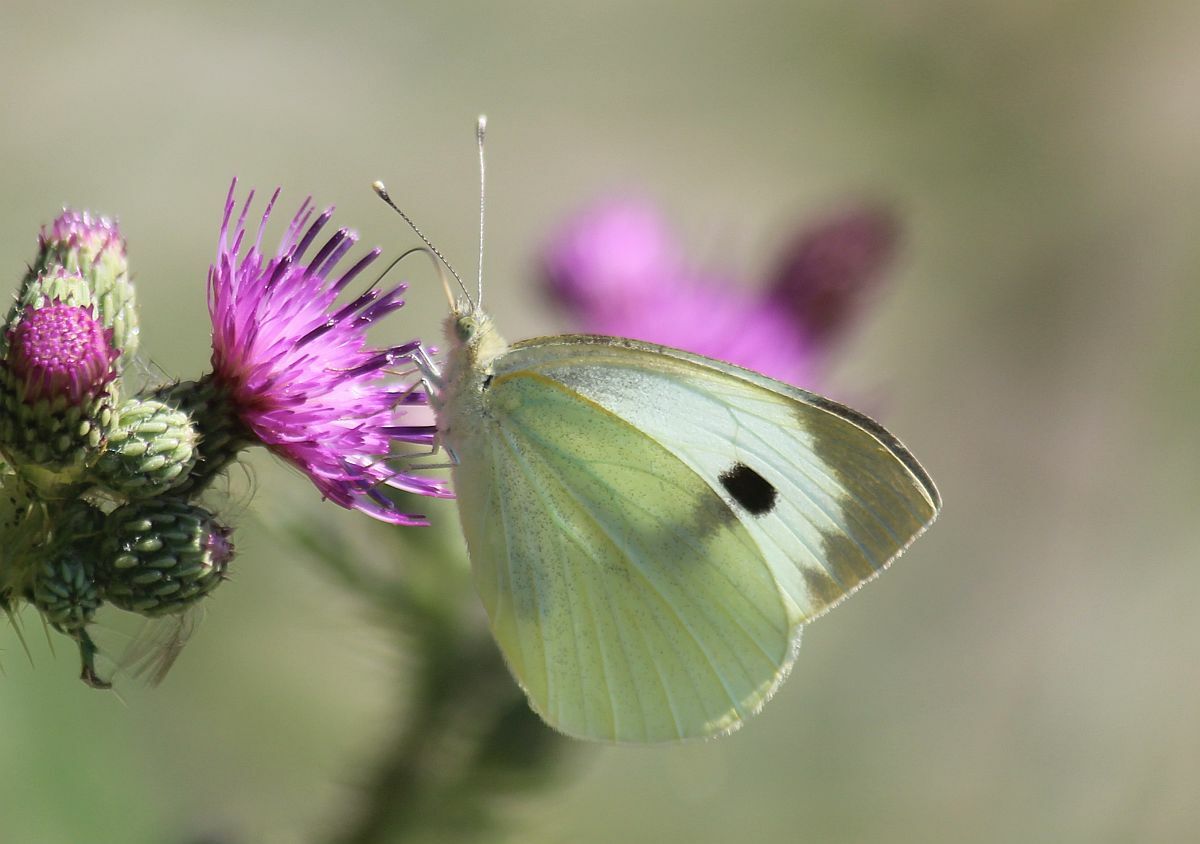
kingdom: Animalia
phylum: Arthropoda
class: Insecta
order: Lepidoptera
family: Pieridae
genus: Pieris
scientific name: Pieris brassicae
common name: Large white
